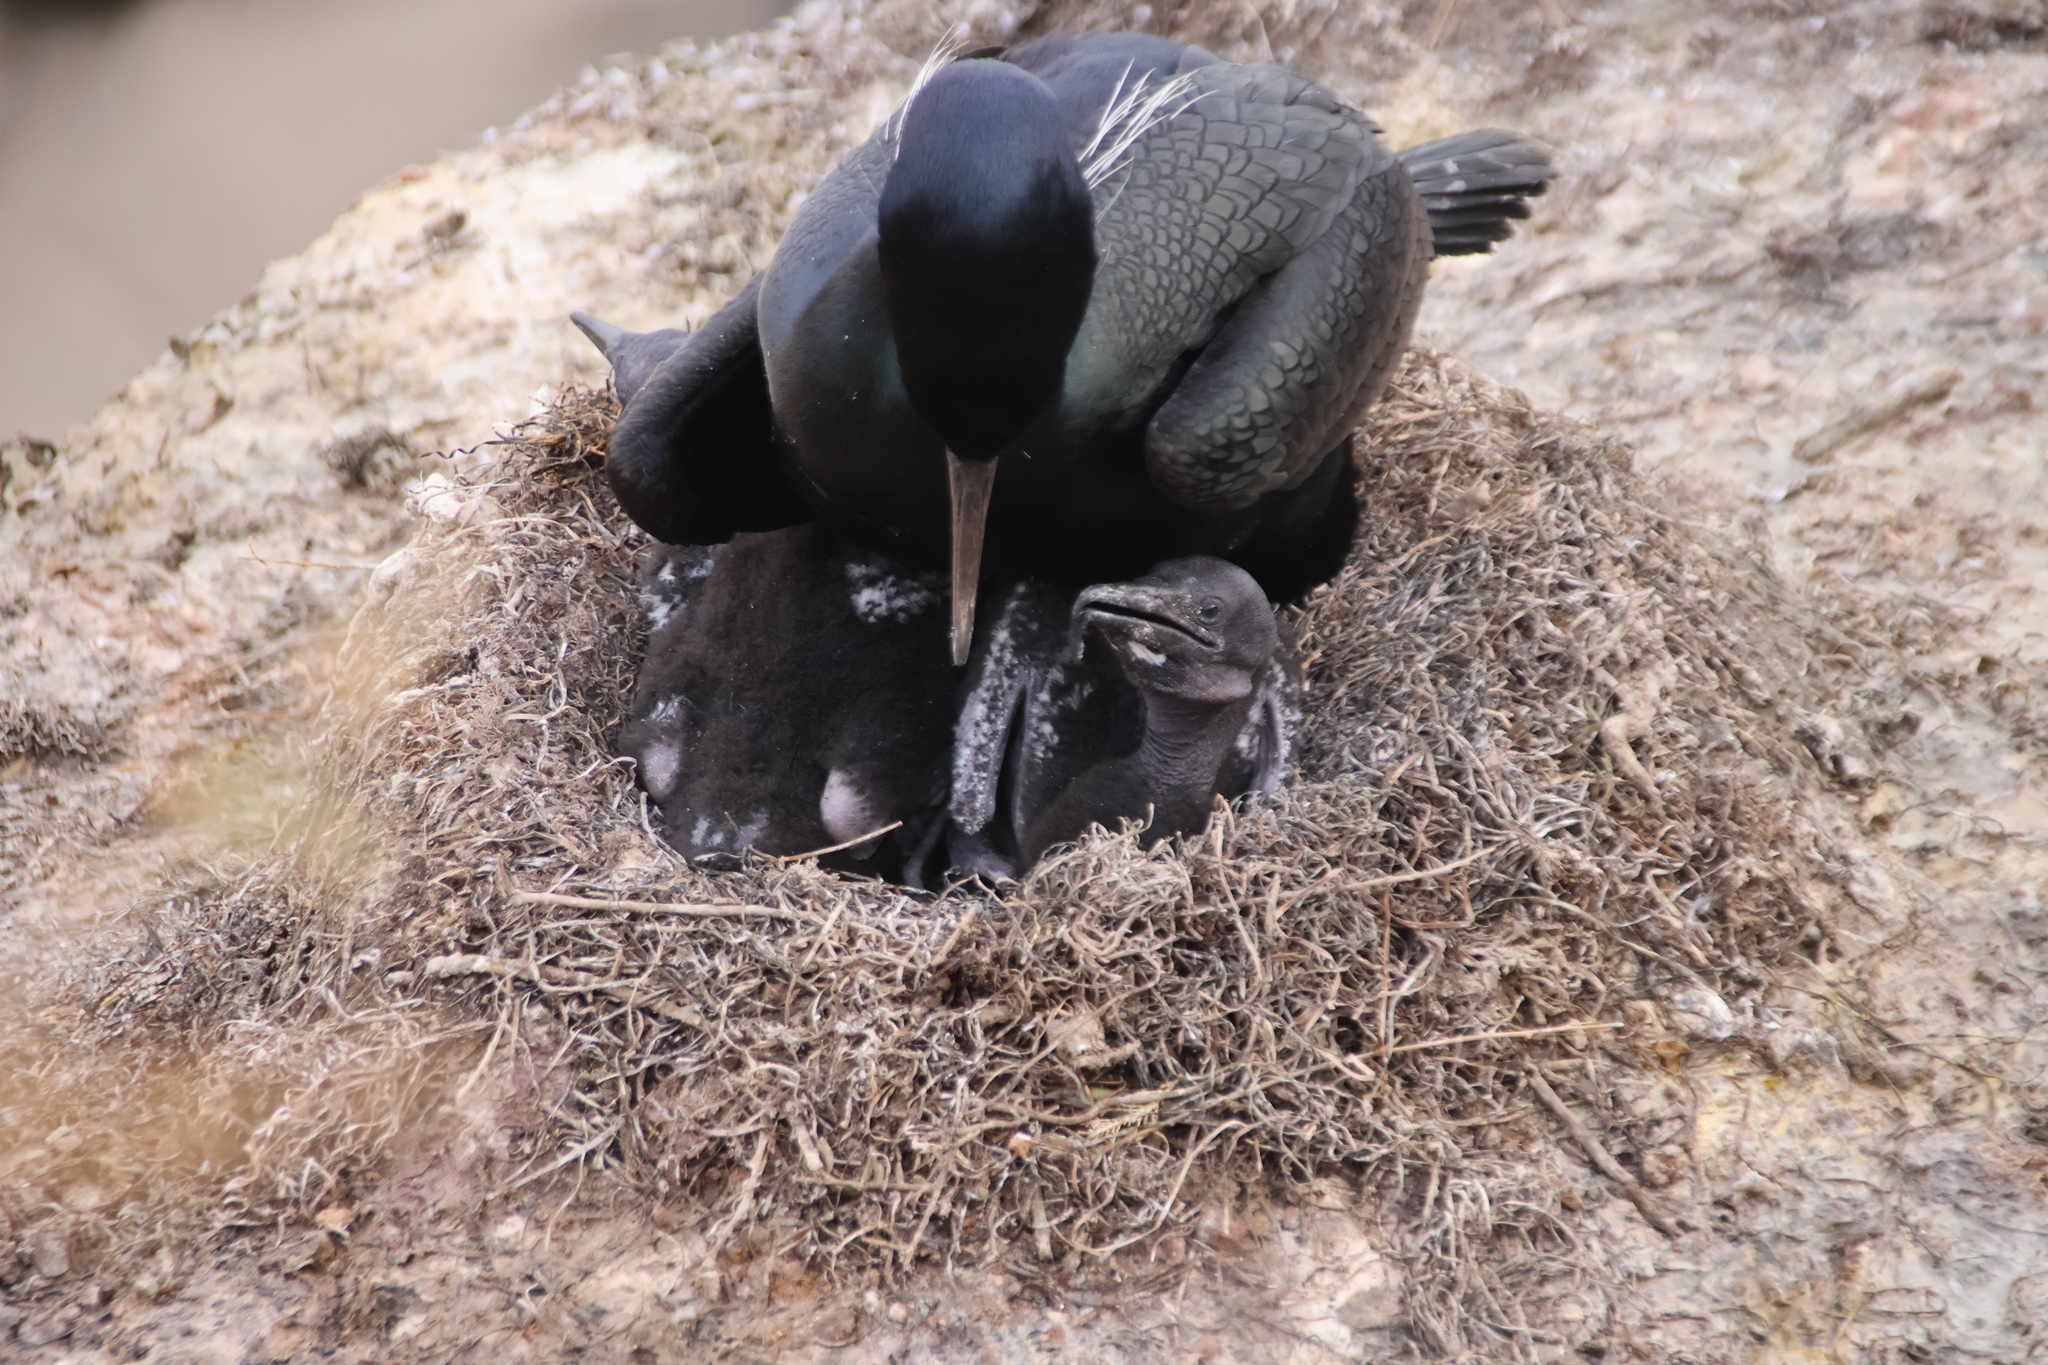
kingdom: Animalia
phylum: Chordata
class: Aves
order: Suliformes
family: Phalacrocoracidae
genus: Urile
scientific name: Urile penicillatus
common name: Brandt's cormorant
